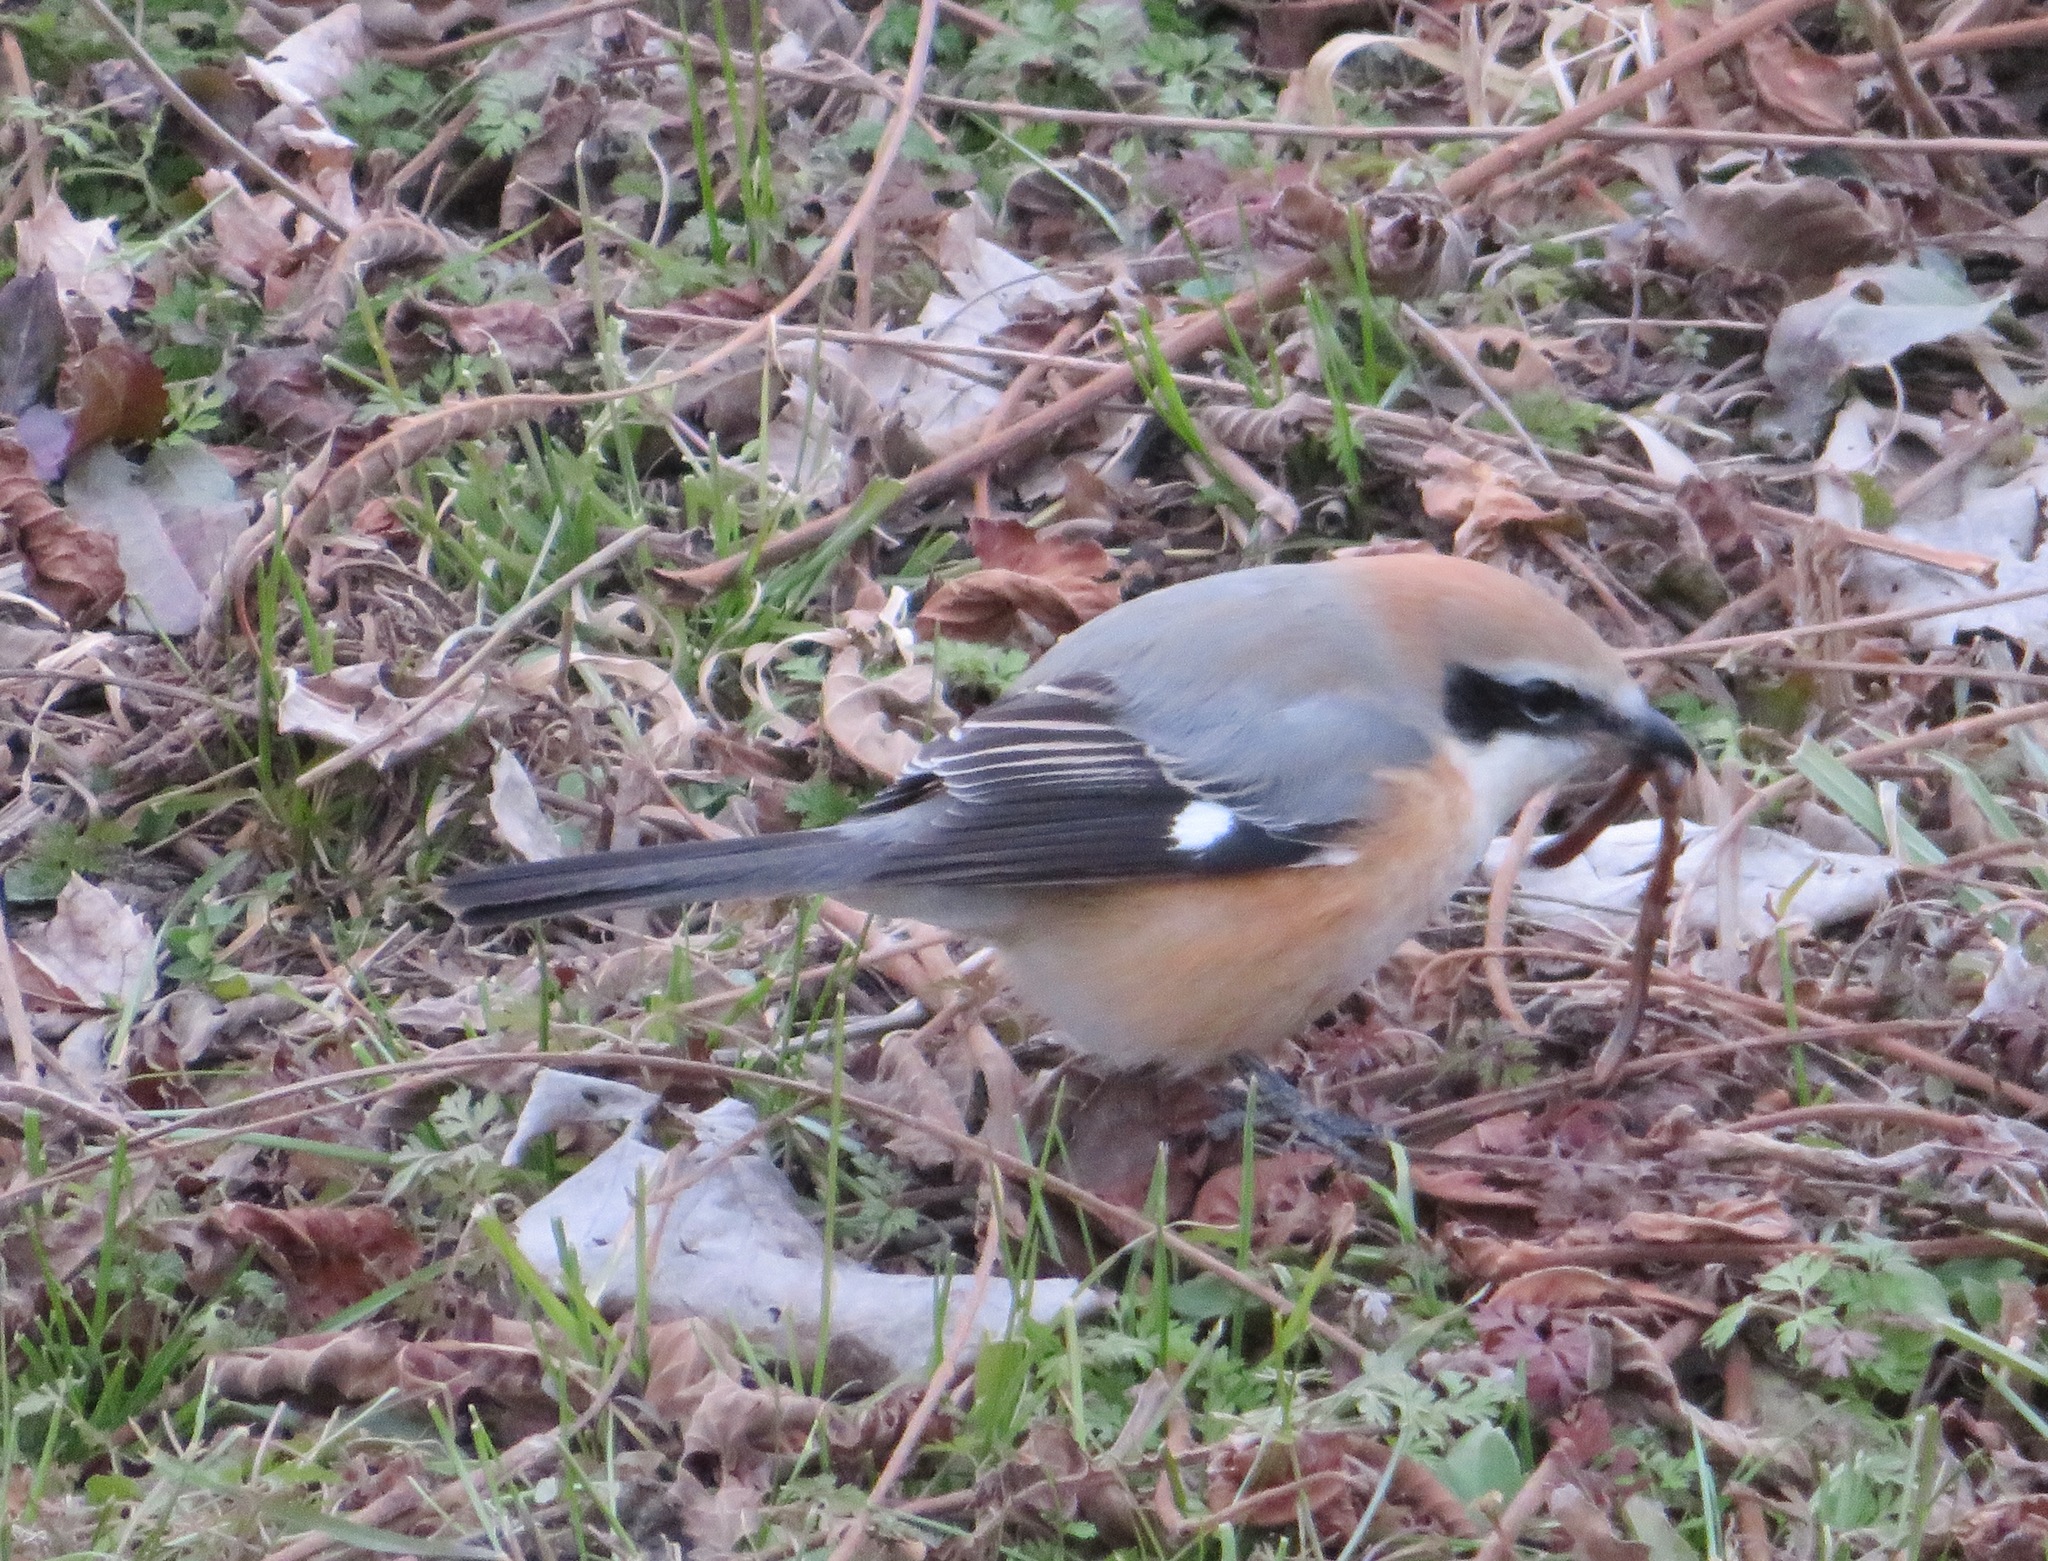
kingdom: Animalia
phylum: Chordata
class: Aves
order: Passeriformes
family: Laniidae
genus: Lanius
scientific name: Lanius bucephalus
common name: Bull-headed shrike
